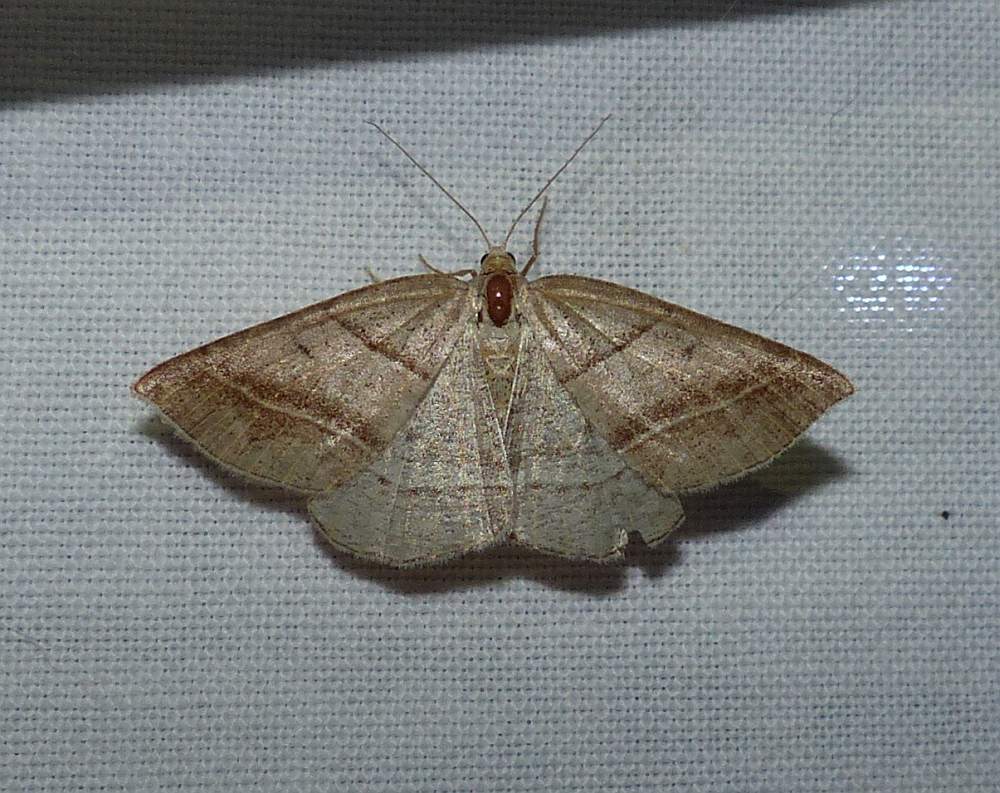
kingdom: Animalia
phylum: Arthropoda
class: Insecta
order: Lepidoptera
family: Pterophoridae
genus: Pterophorus
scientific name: Pterophorus Petrophora subaequaria
